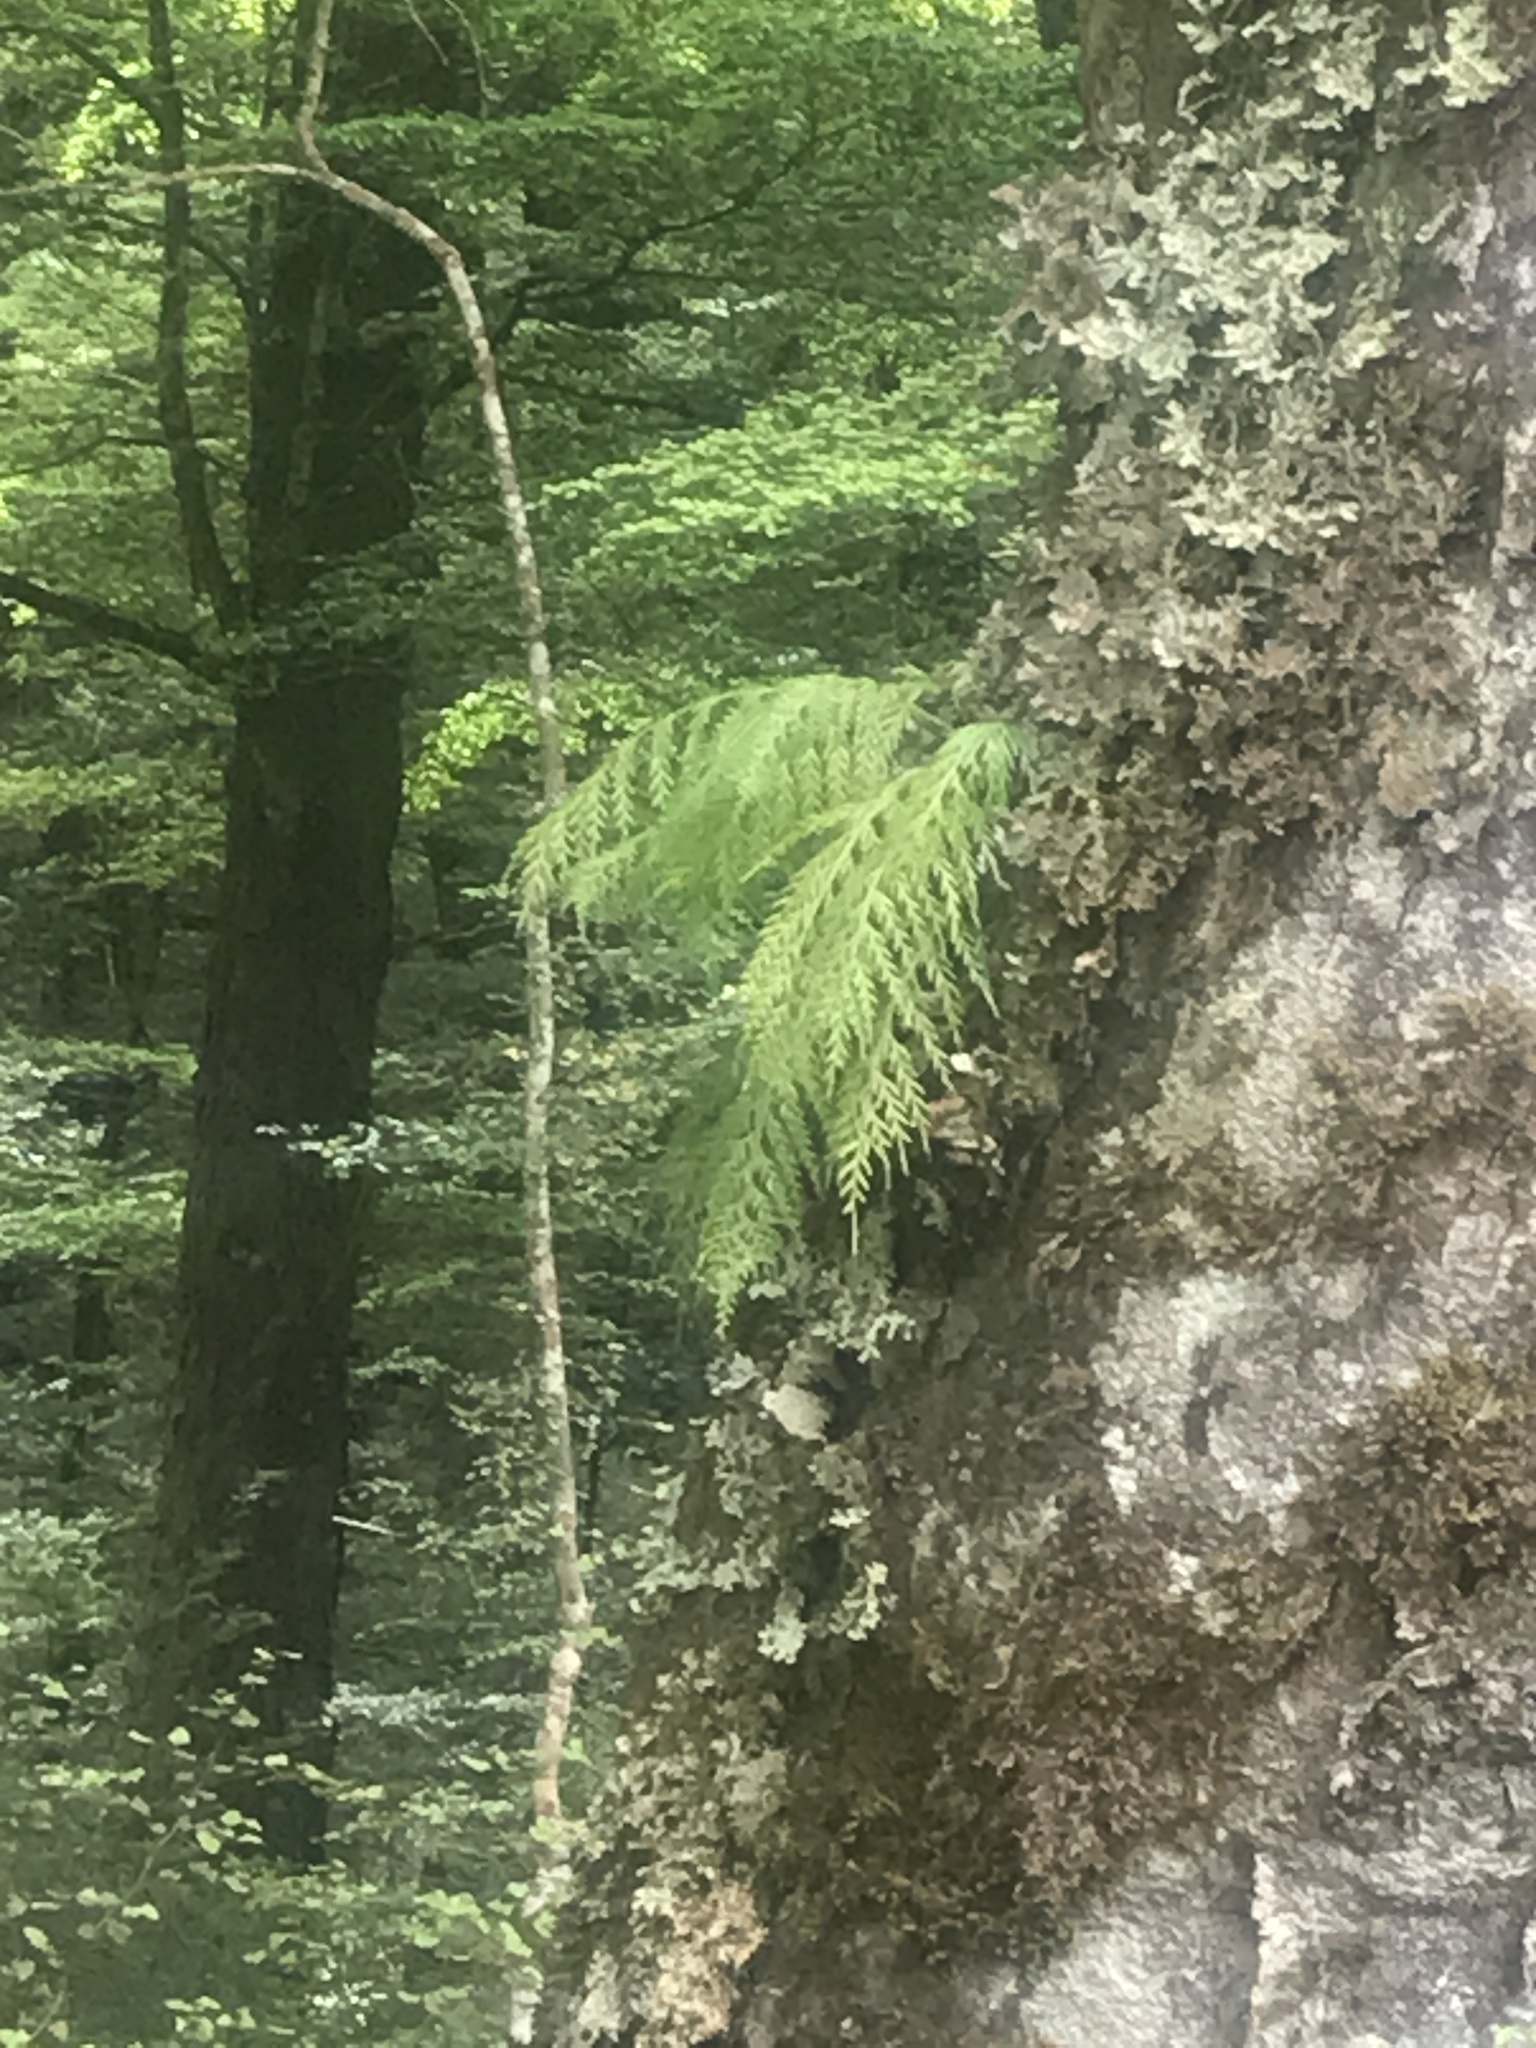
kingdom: Plantae
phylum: Tracheophyta
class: Polypodiopsida
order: Polypodiales
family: Aspleniaceae
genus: Asplenium
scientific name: Asplenium flaccidum
